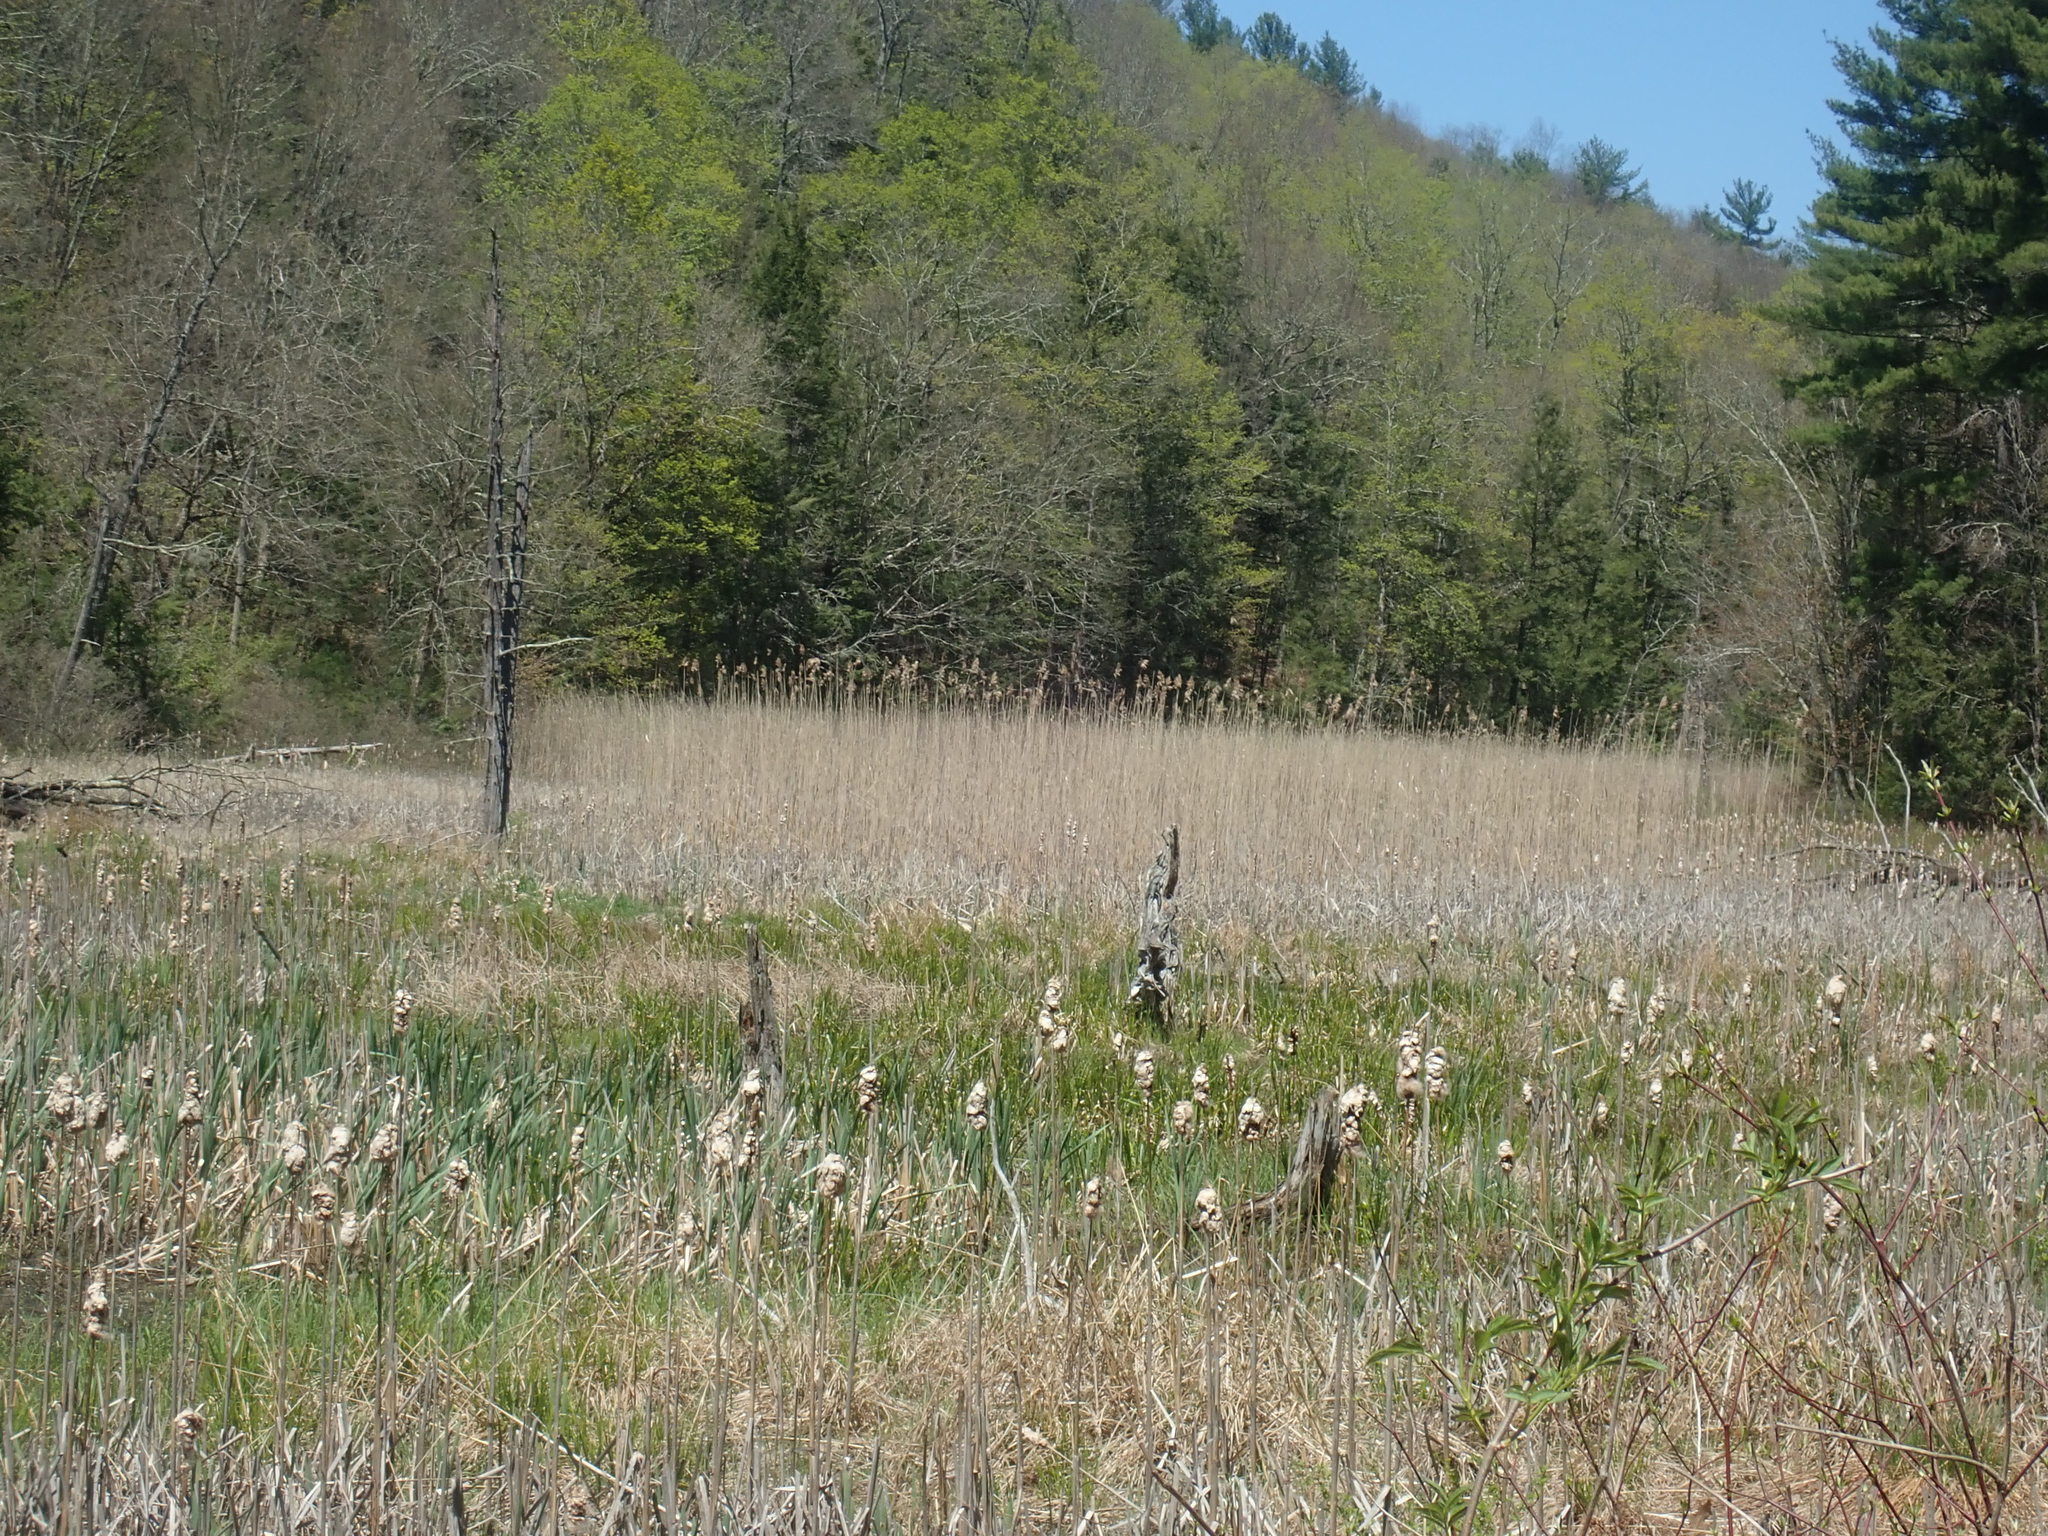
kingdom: Plantae
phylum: Tracheophyta
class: Liliopsida
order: Poales
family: Poaceae
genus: Phragmites
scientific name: Phragmites australis
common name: Common reed
